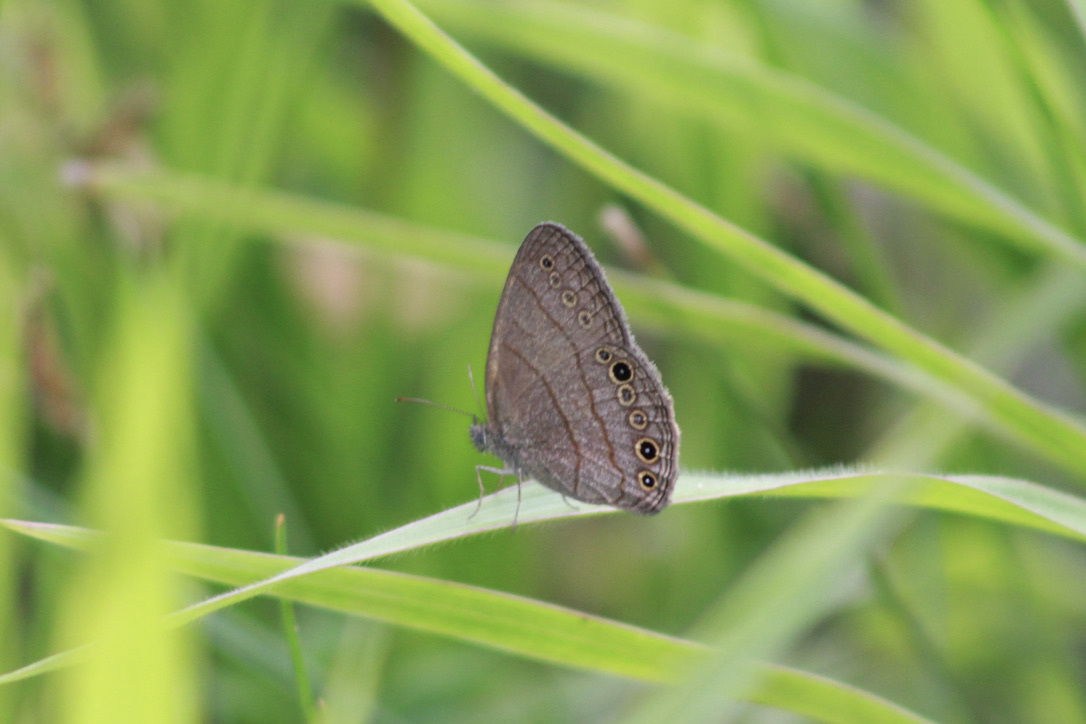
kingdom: Animalia
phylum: Arthropoda
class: Insecta
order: Lepidoptera
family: Nymphalidae
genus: Hermeuptychia
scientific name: Hermeuptychia canthe
